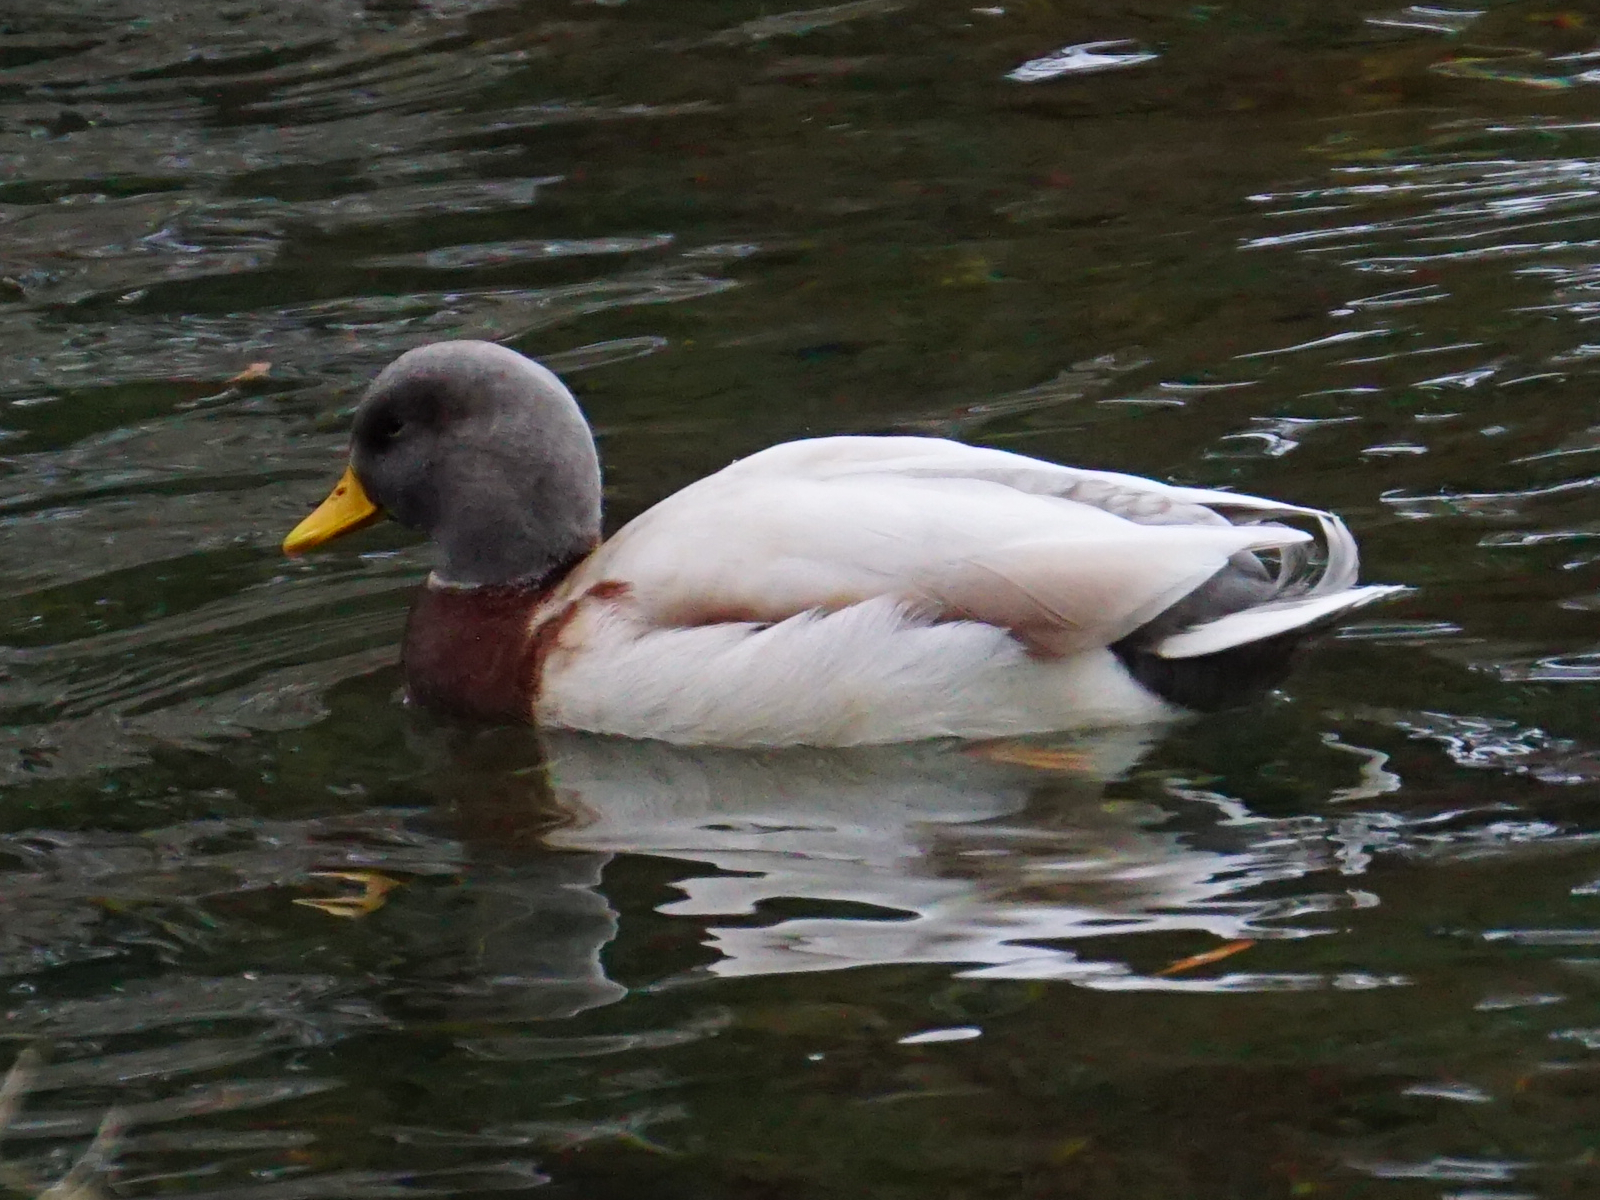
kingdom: Animalia
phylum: Chordata
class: Aves
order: Anseriformes
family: Anatidae
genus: Anas
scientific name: Anas platyrhynchos
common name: Mallard
